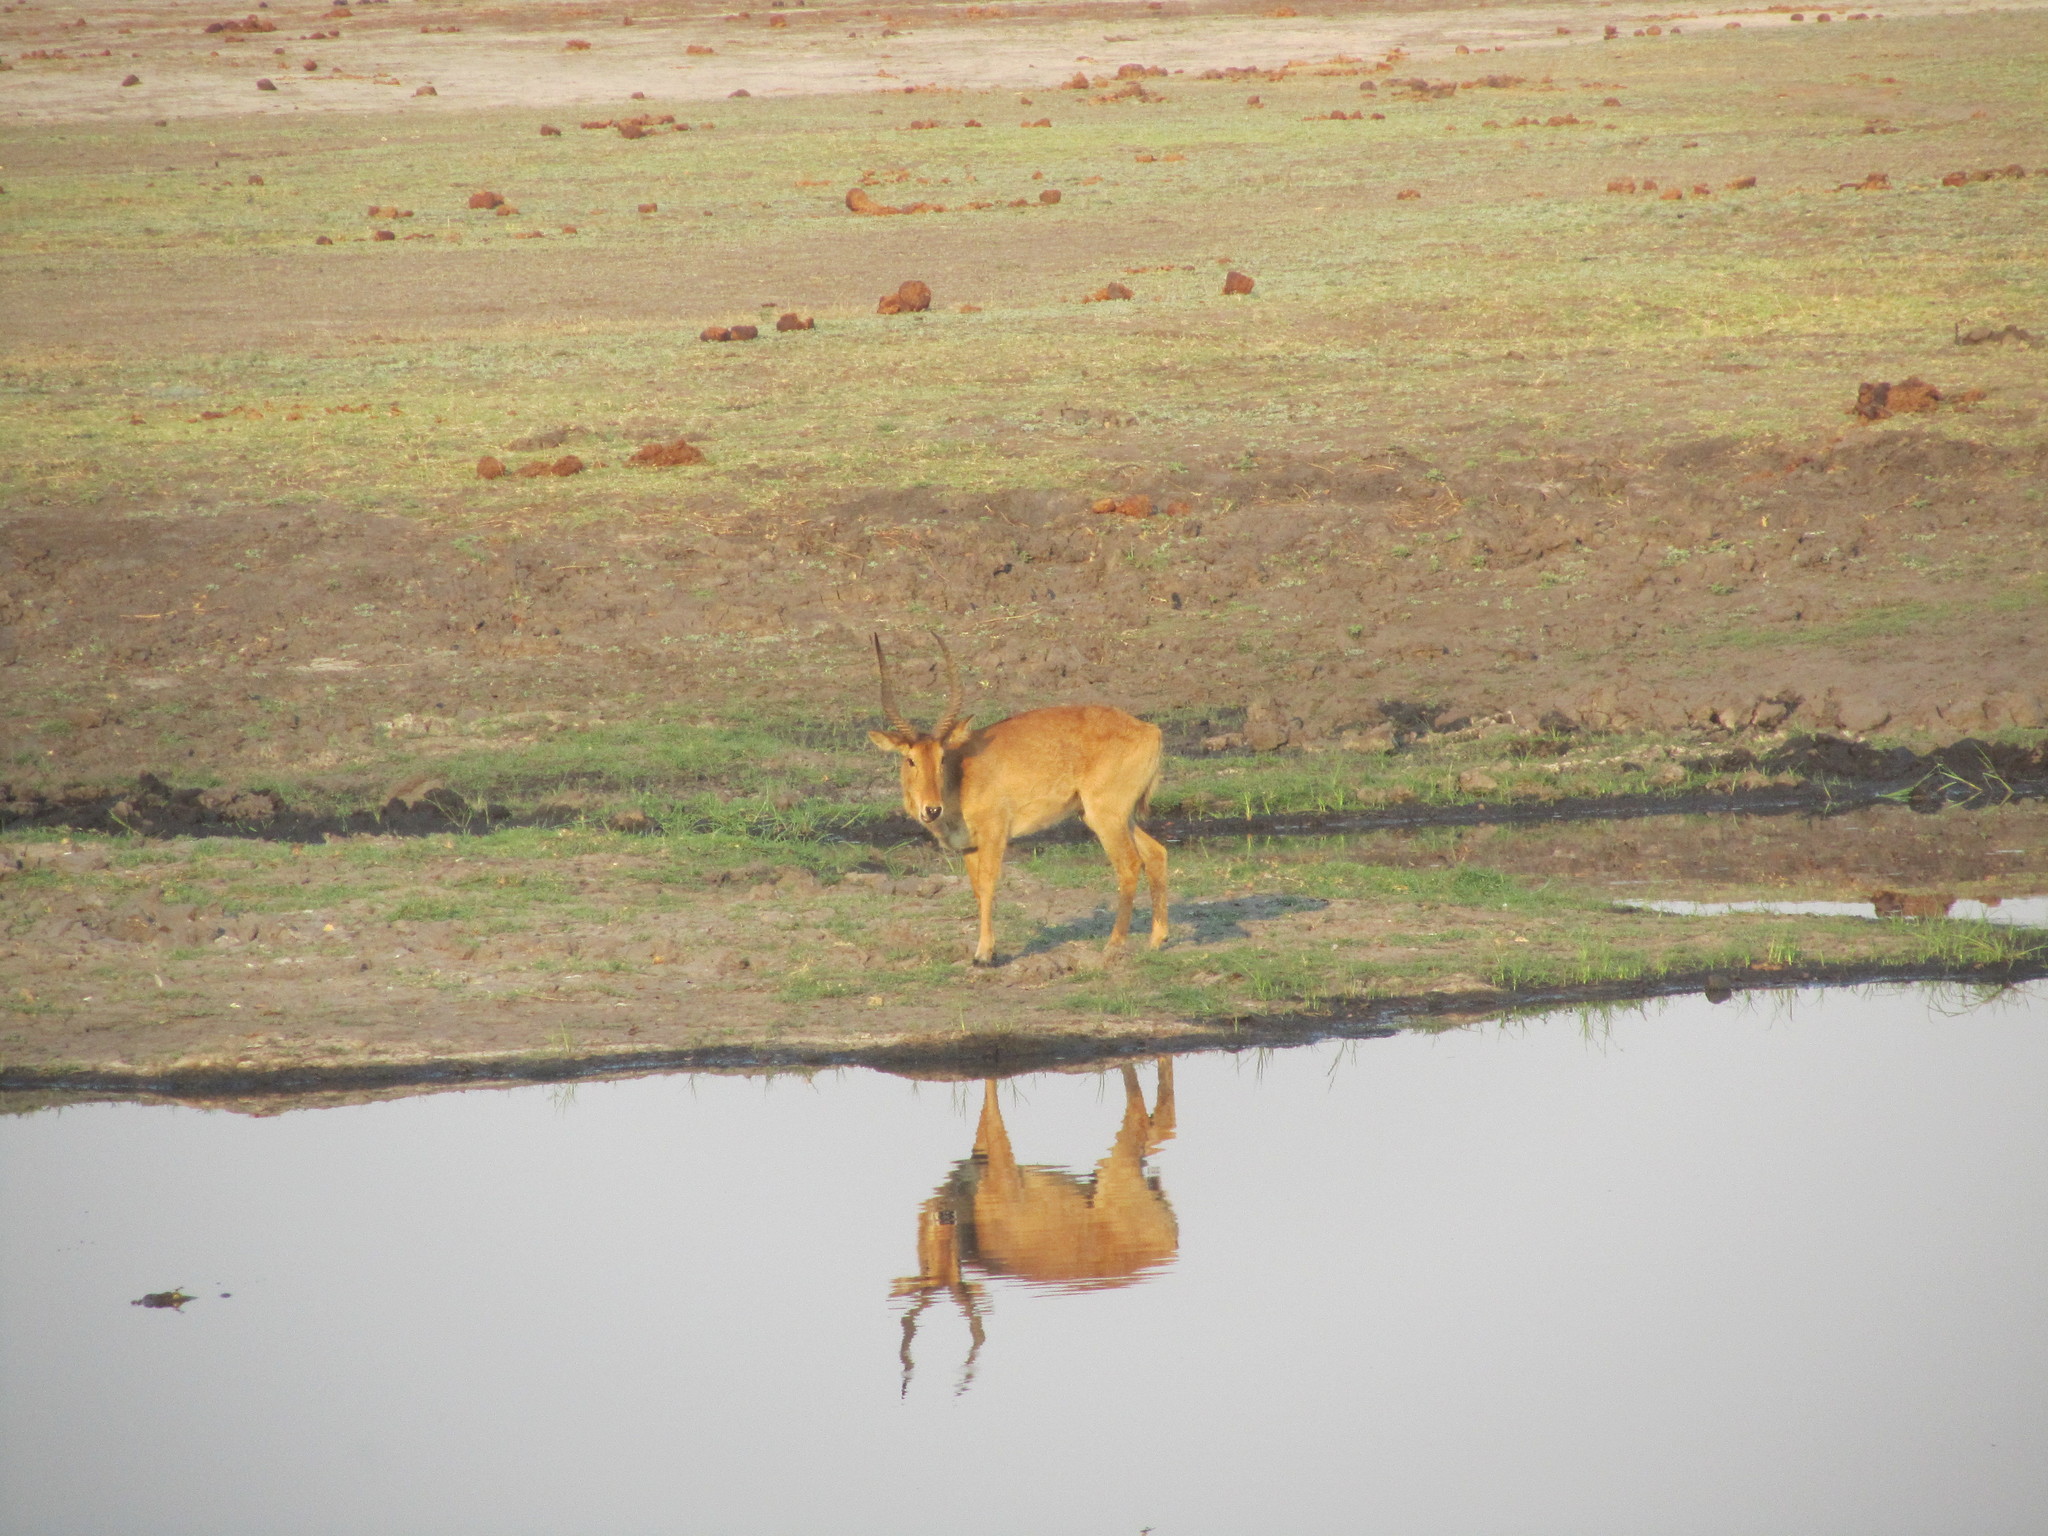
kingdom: Animalia
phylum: Chordata
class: Mammalia
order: Artiodactyla
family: Bovidae
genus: Kobus
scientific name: Kobus vardonii
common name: Puku
